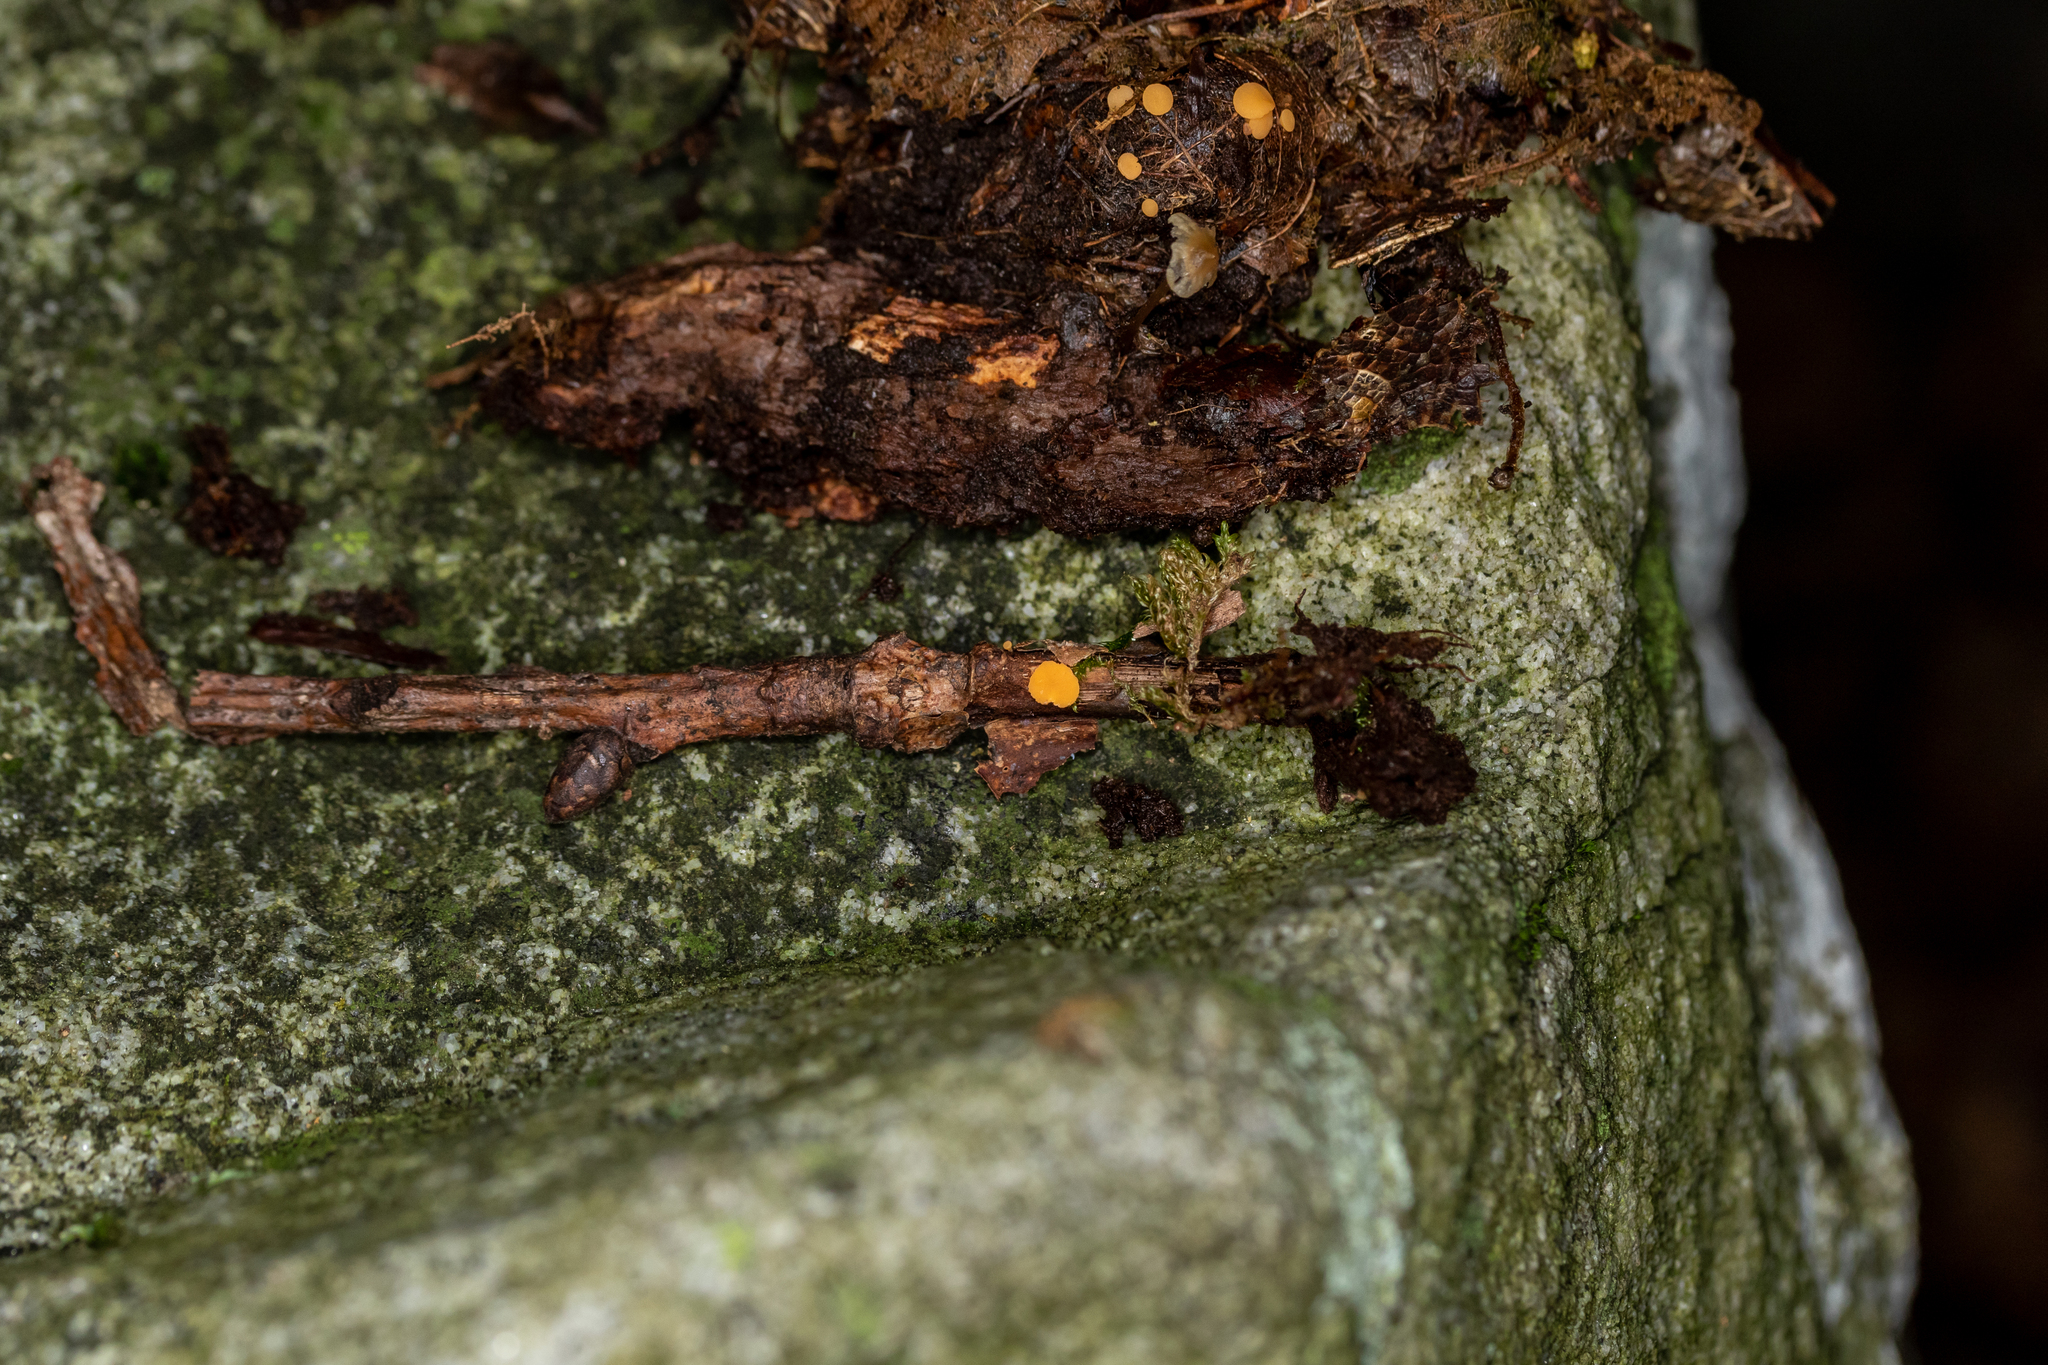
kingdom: Fungi
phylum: Ascomycota
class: Leotiomycetes
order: Helotiales
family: Helotiaceae
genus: Hymenoscyphus
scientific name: Hymenoscyphus epiphyllus
